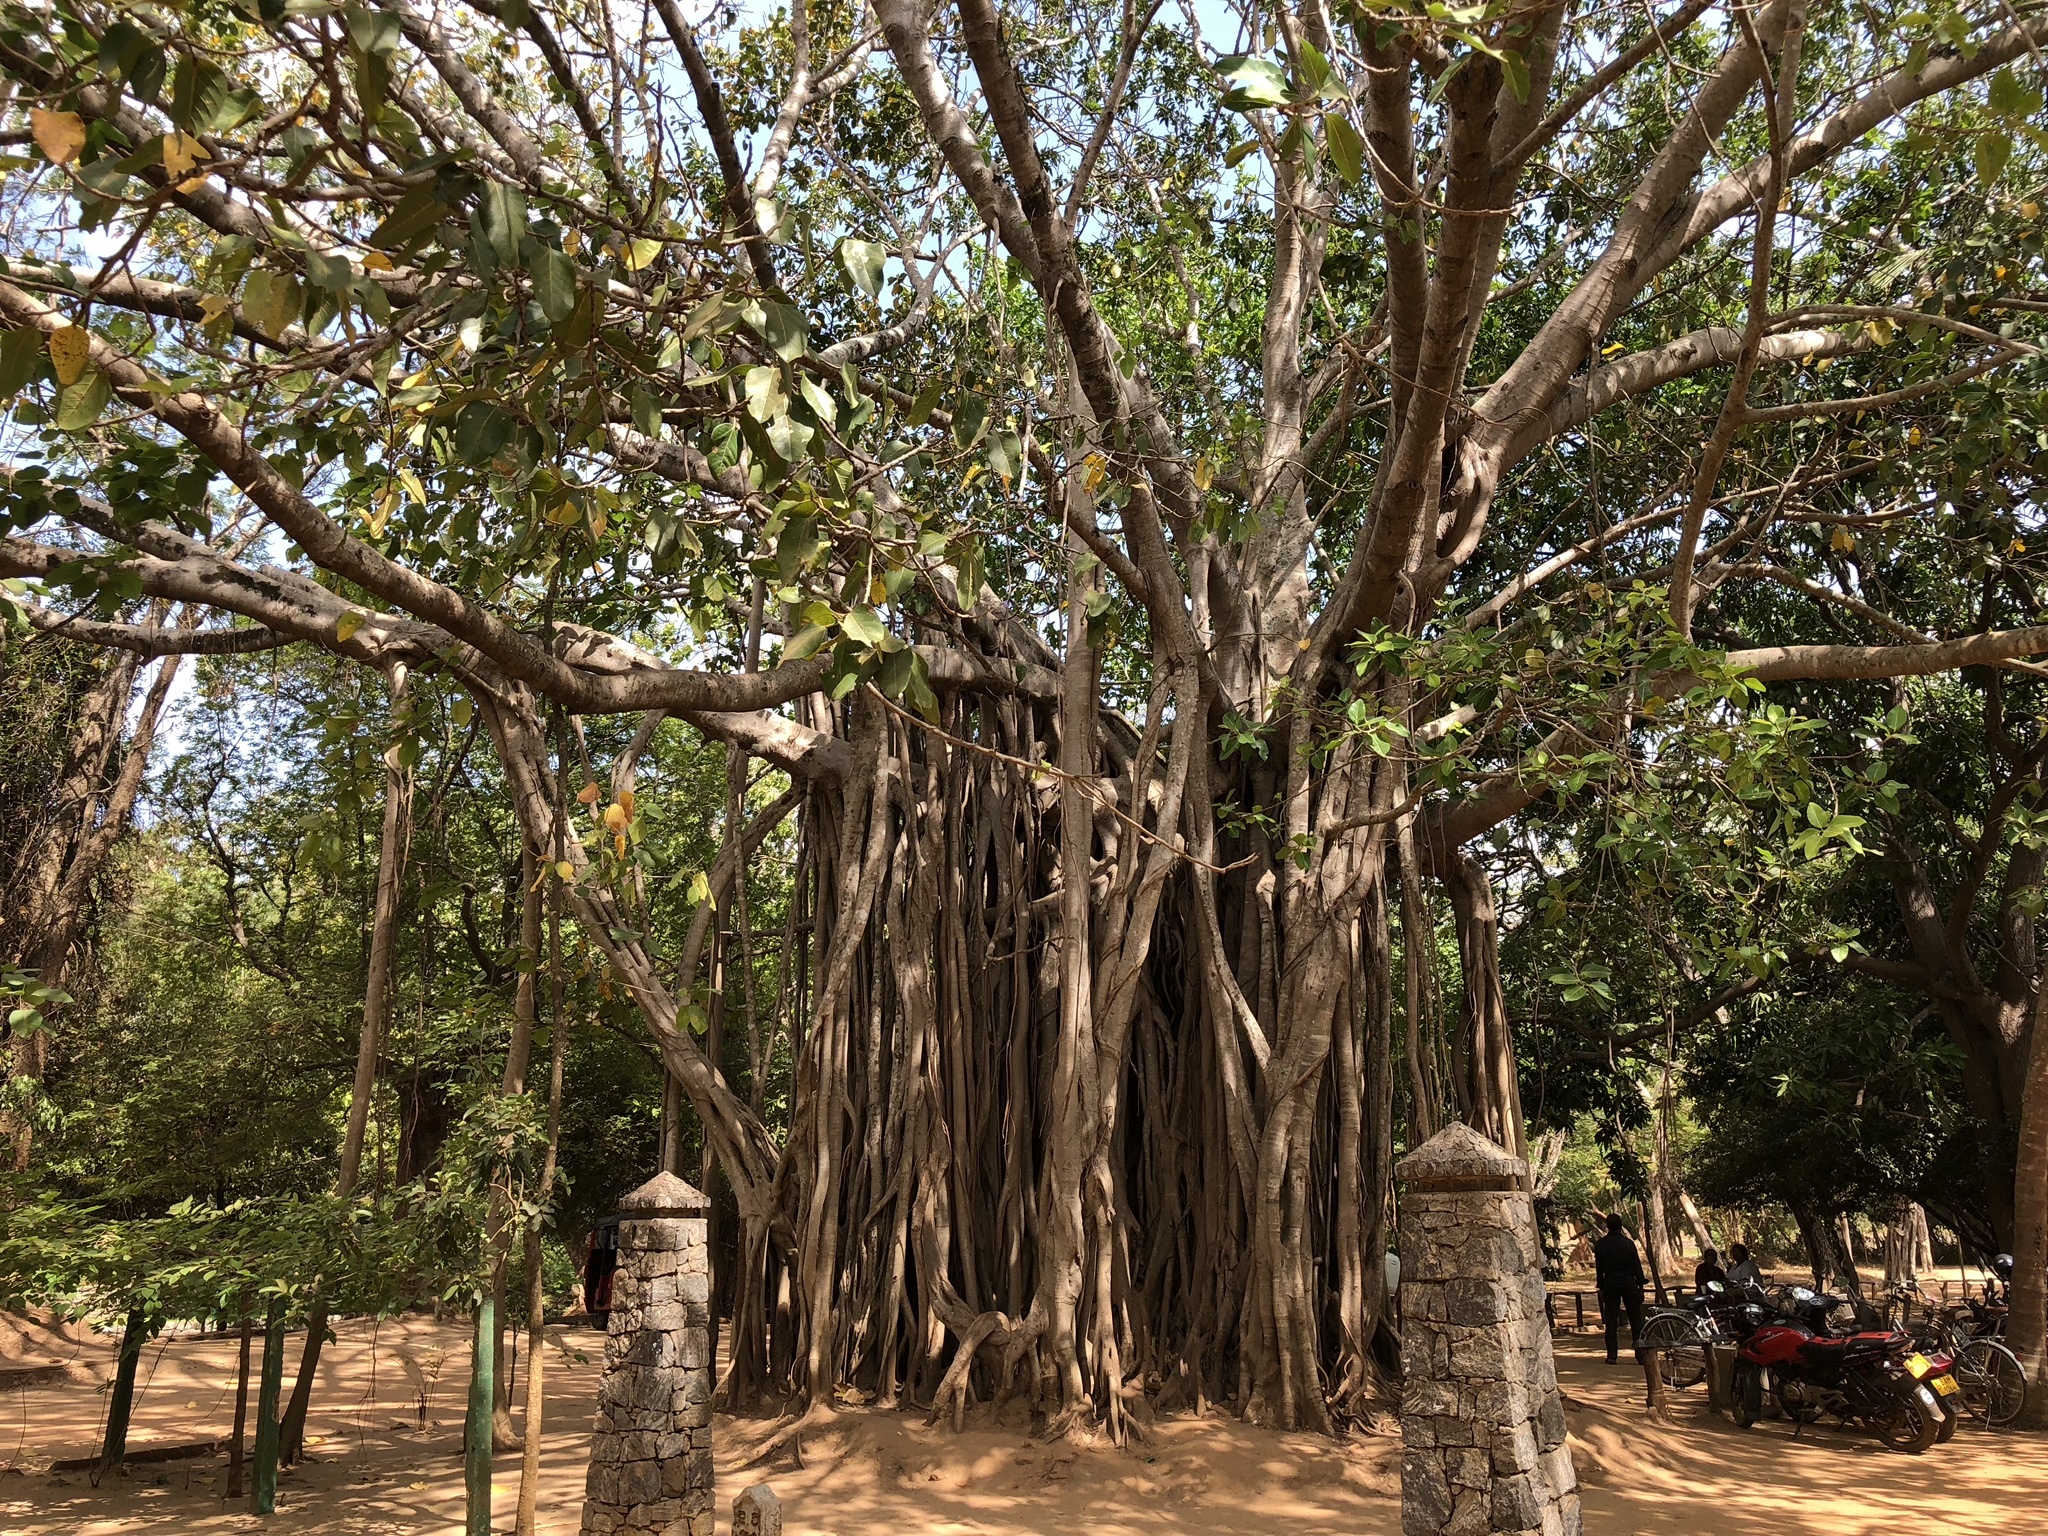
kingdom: Plantae
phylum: Tracheophyta
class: Magnoliopsida
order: Rosales
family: Moraceae
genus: Ficus
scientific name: Ficus benghalensis
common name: Indian banyan
